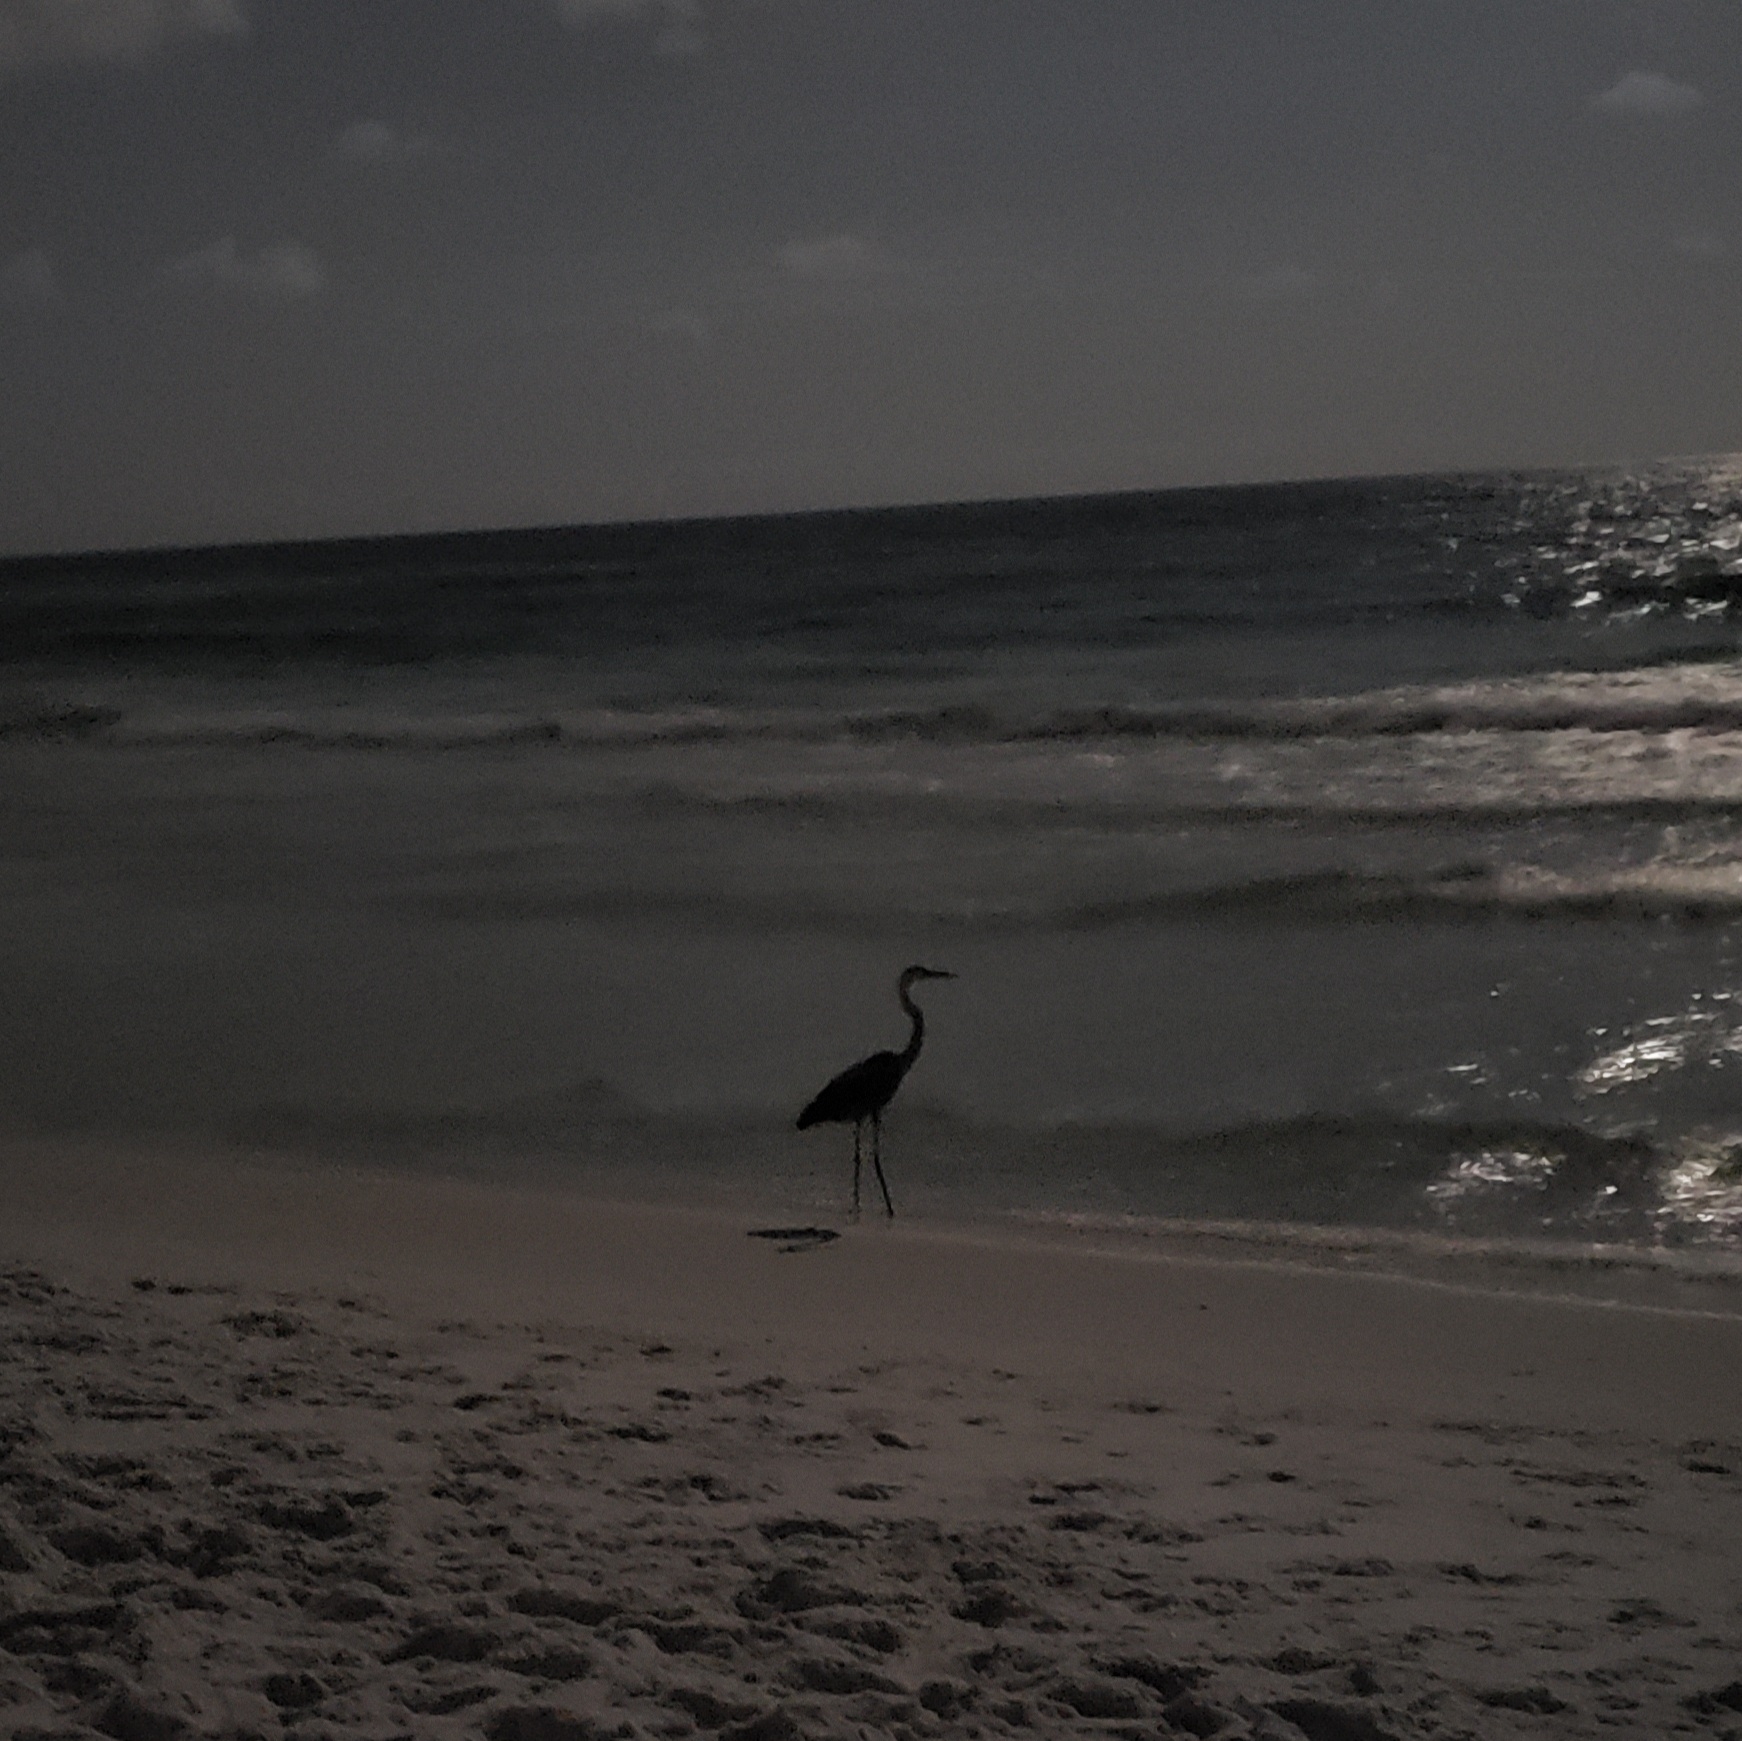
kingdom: Animalia
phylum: Chordata
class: Aves
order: Pelecaniformes
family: Ardeidae
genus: Ardea
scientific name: Ardea herodias
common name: Great blue heron
